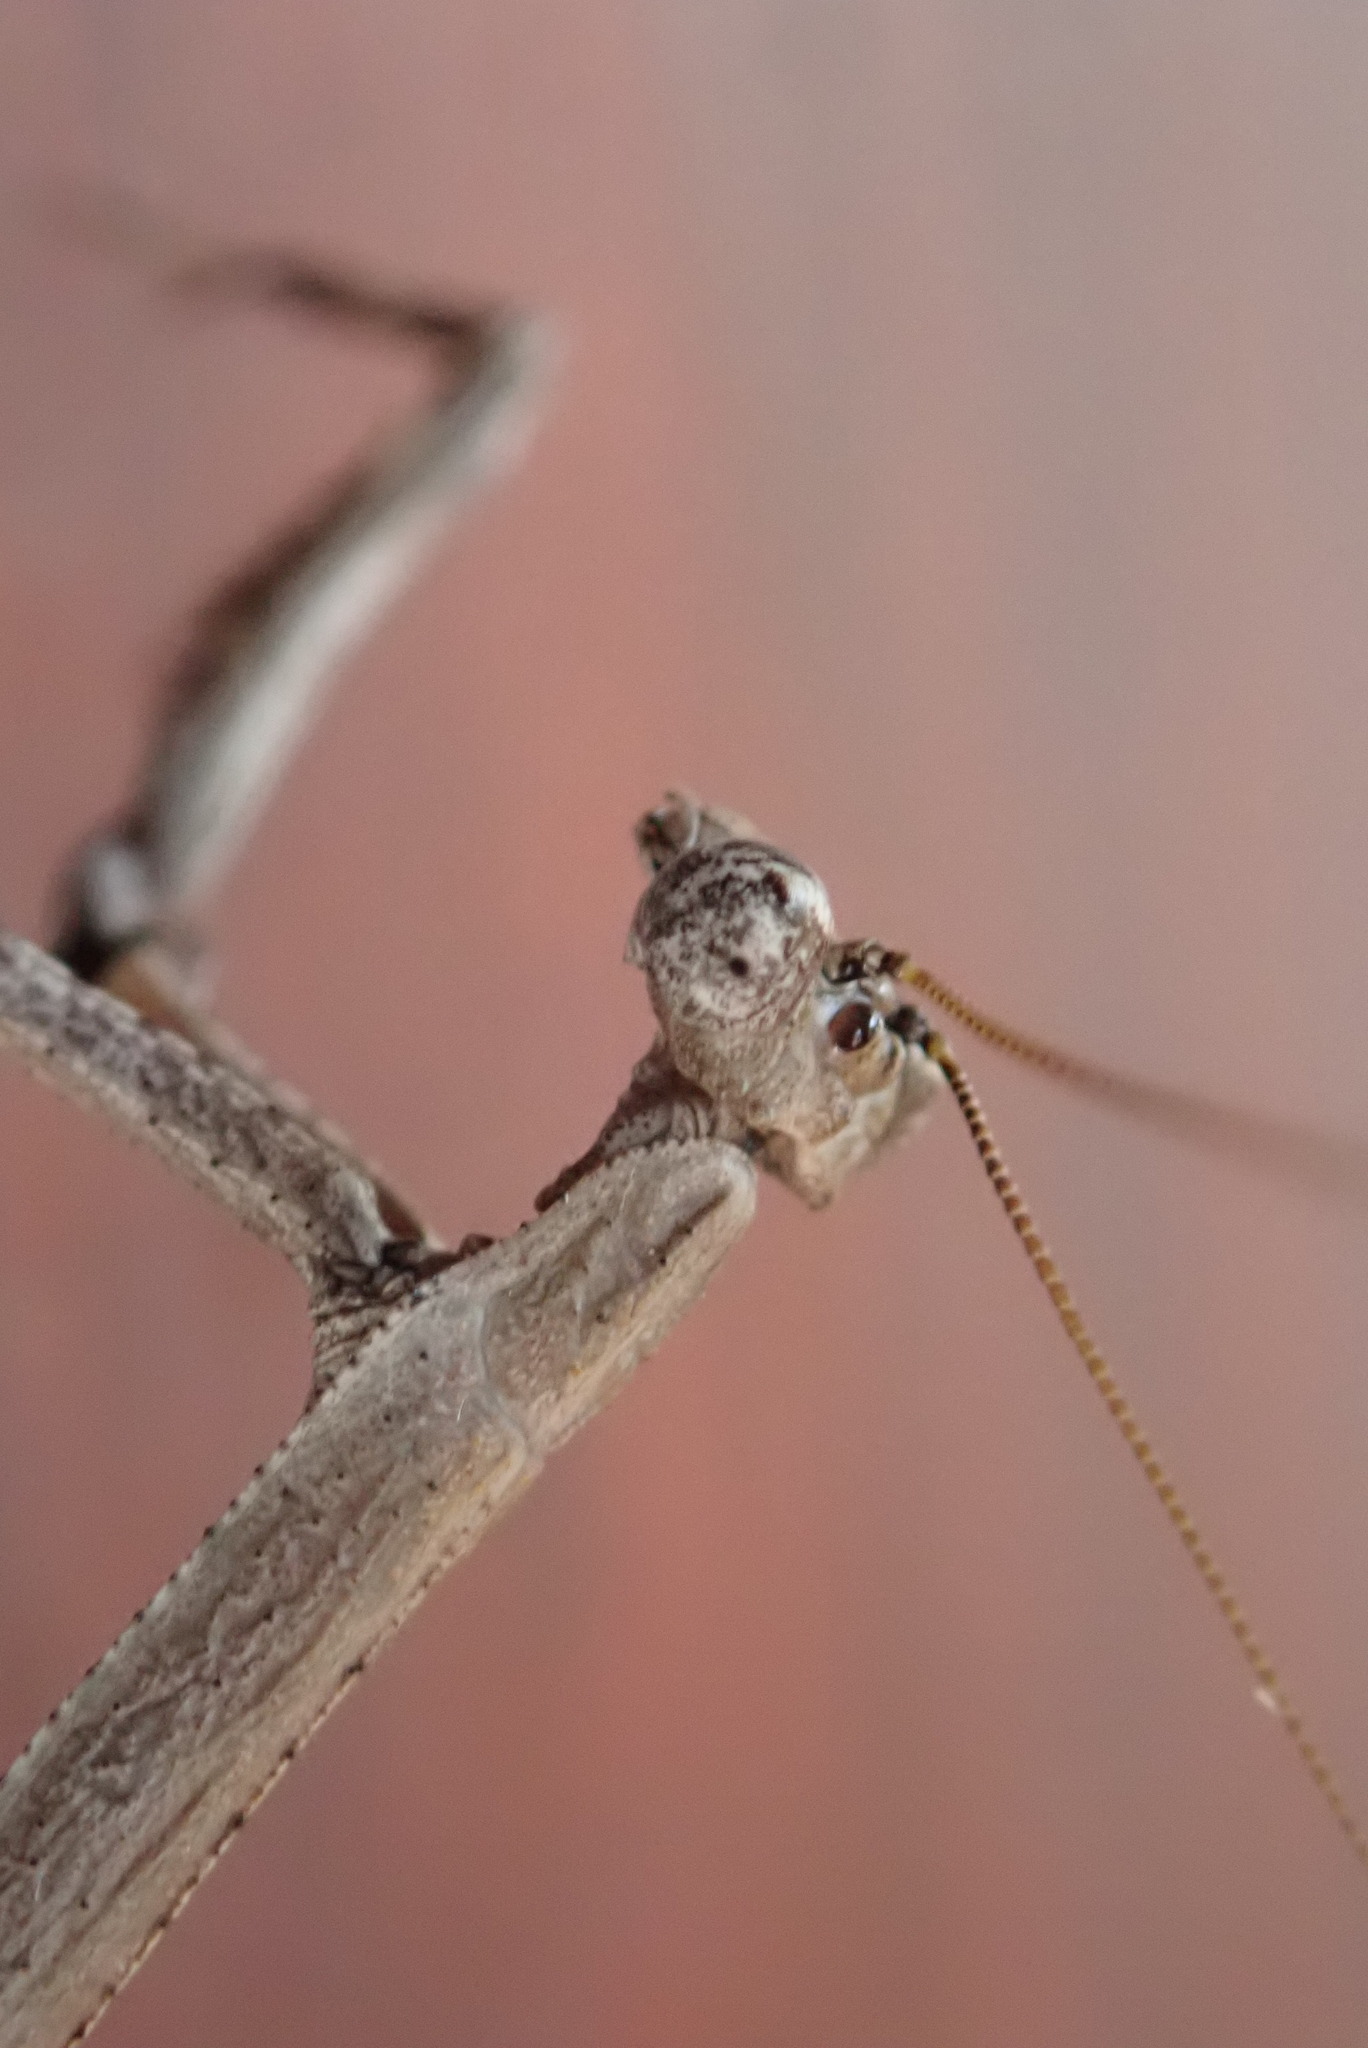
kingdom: Animalia
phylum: Arthropoda
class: Insecta
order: Mantodea
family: Deroplatyidae
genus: Popa
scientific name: Popa spurca
